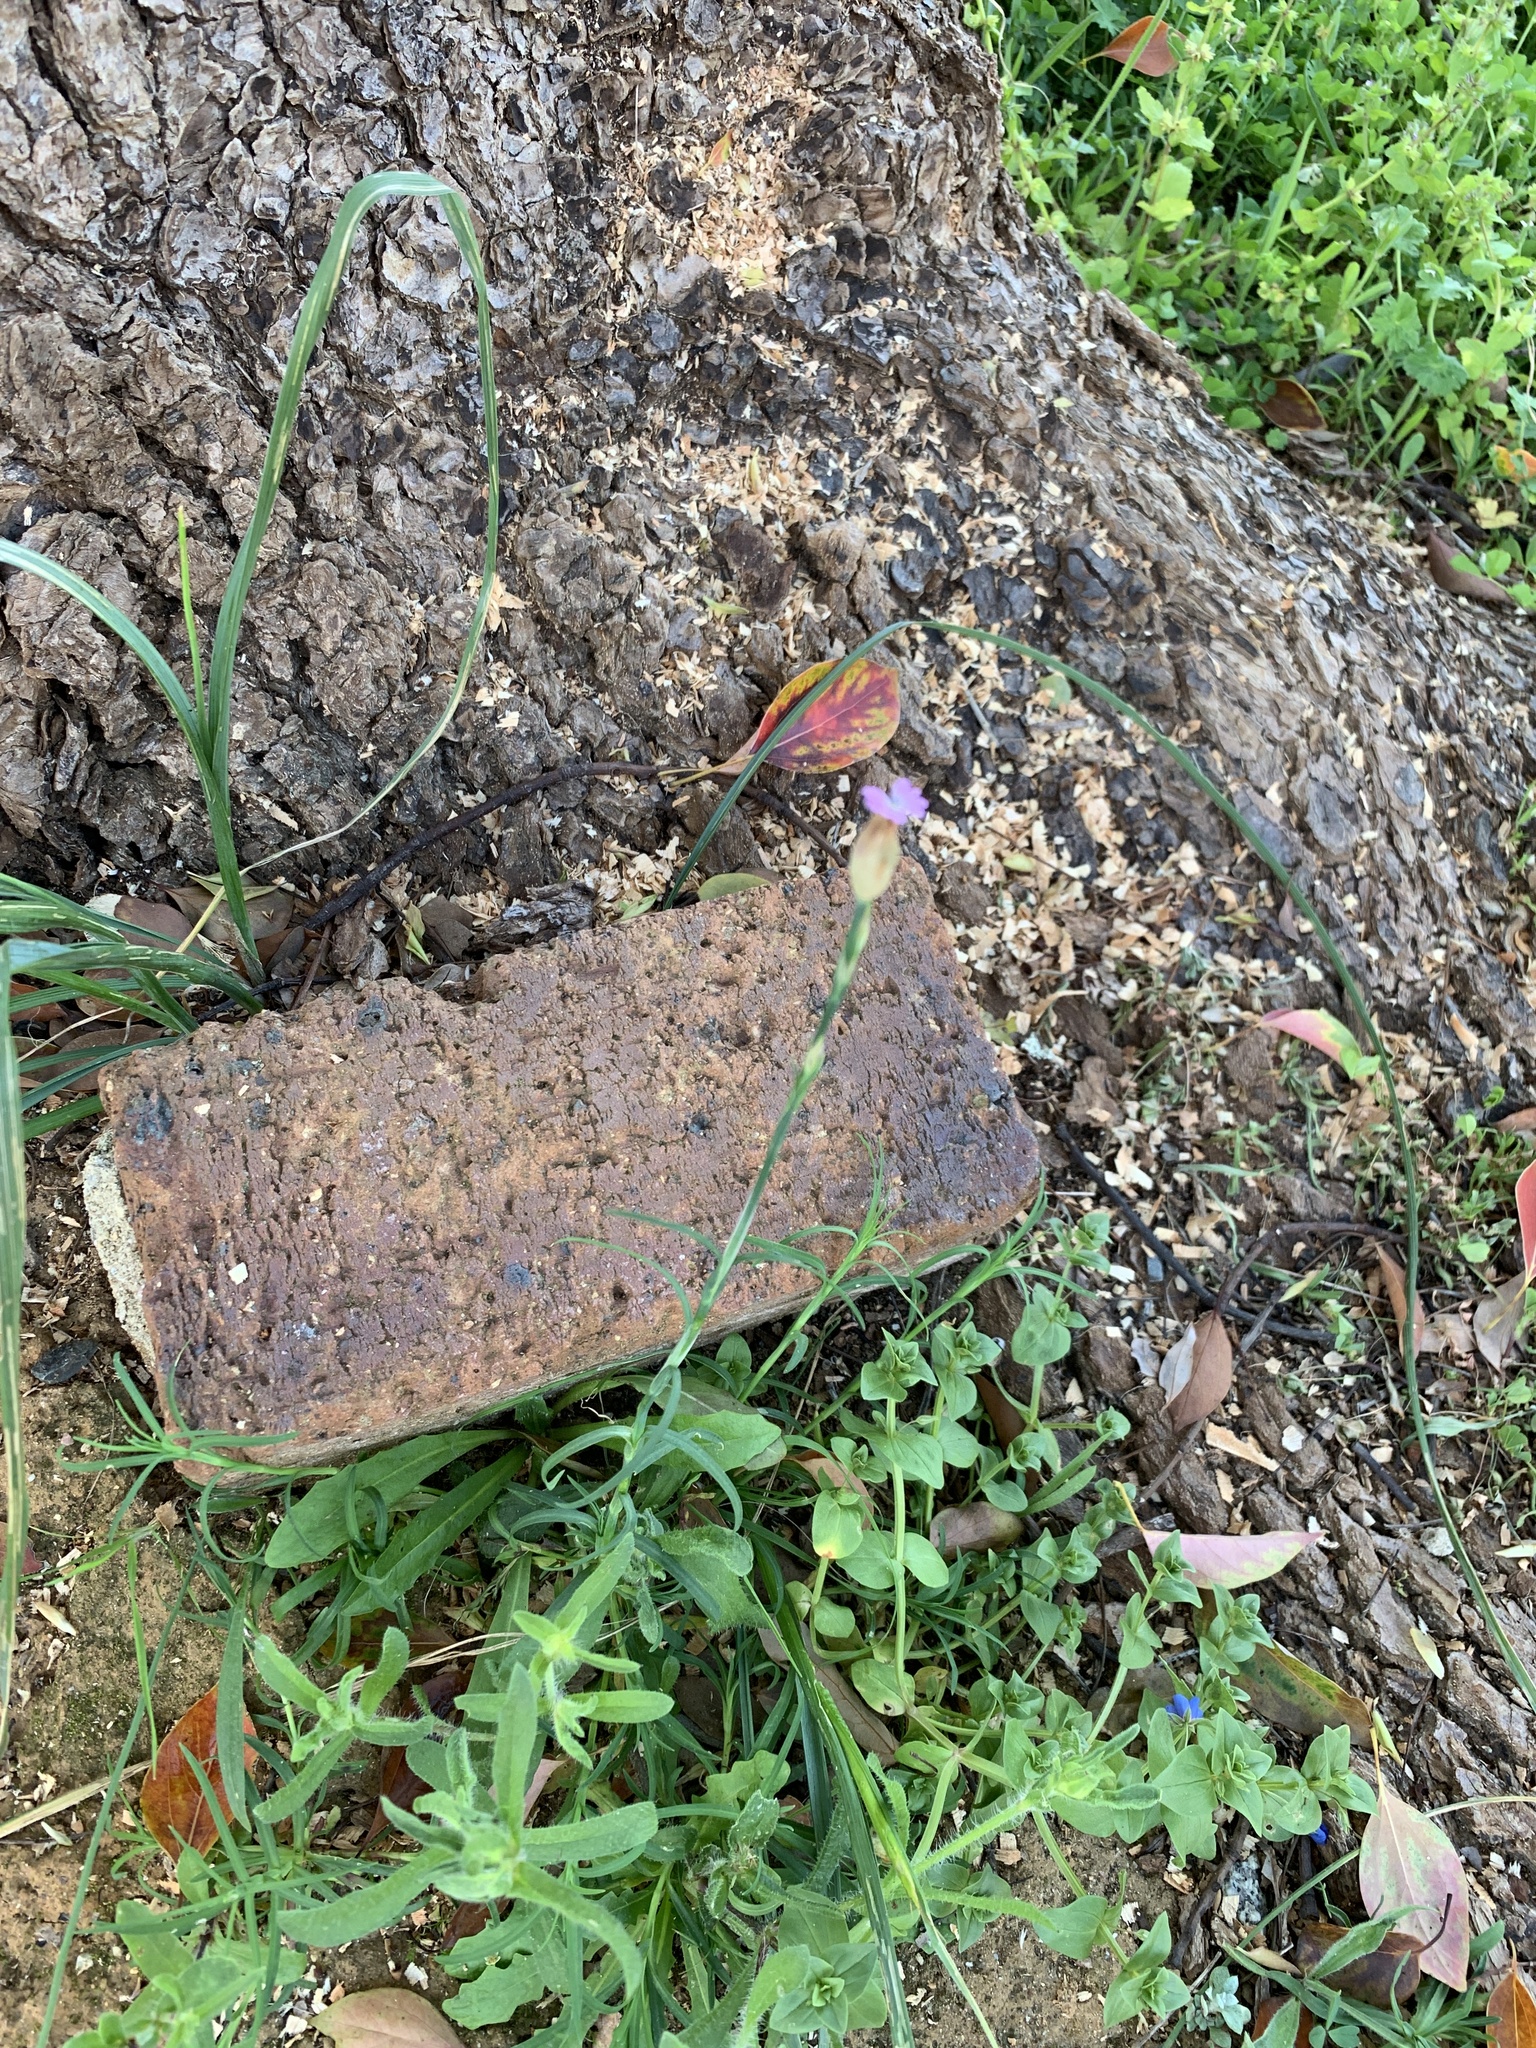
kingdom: Plantae
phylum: Tracheophyta
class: Magnoliopsida
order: Caryophyllales
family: Caryophyllaceae
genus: Petrorhagia
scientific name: Petrorhagia dubia
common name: Hairypink
